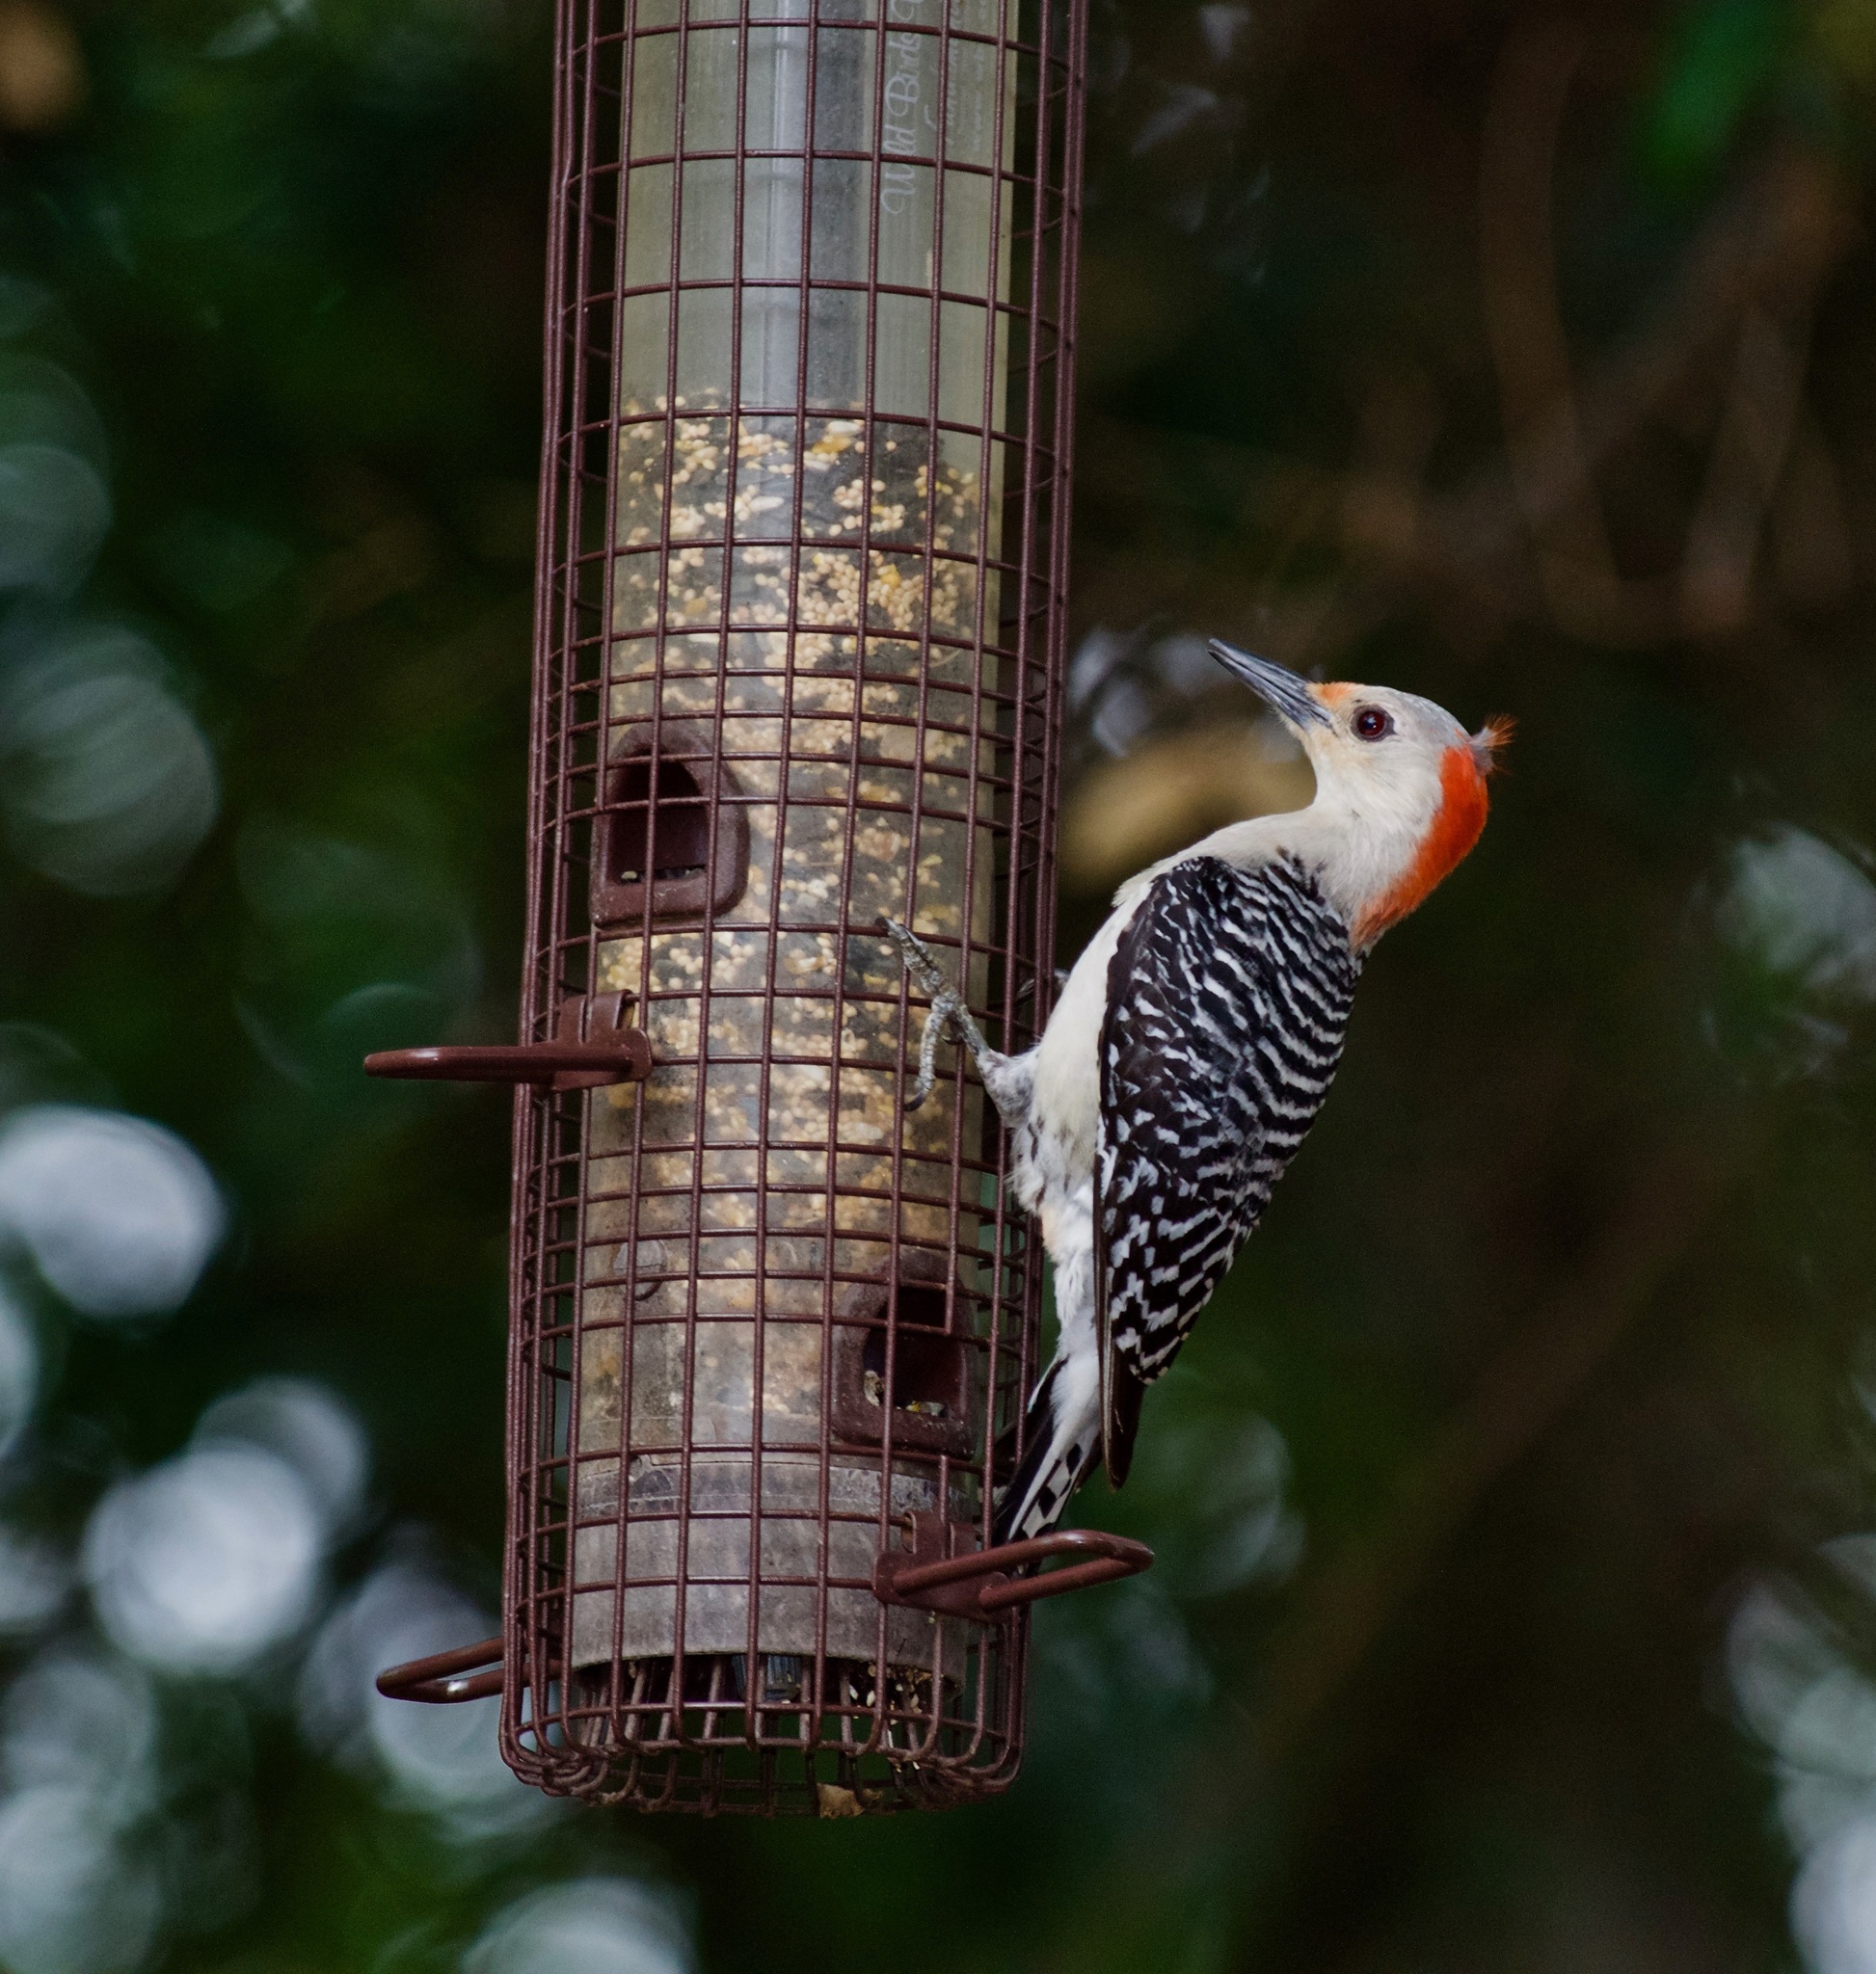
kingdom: Animalia
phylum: Chordata
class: Aves
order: Piciformes
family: Picidae
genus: Melanerpes
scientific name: Melanerpes carolinus
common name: Red-bellied woodpecker
